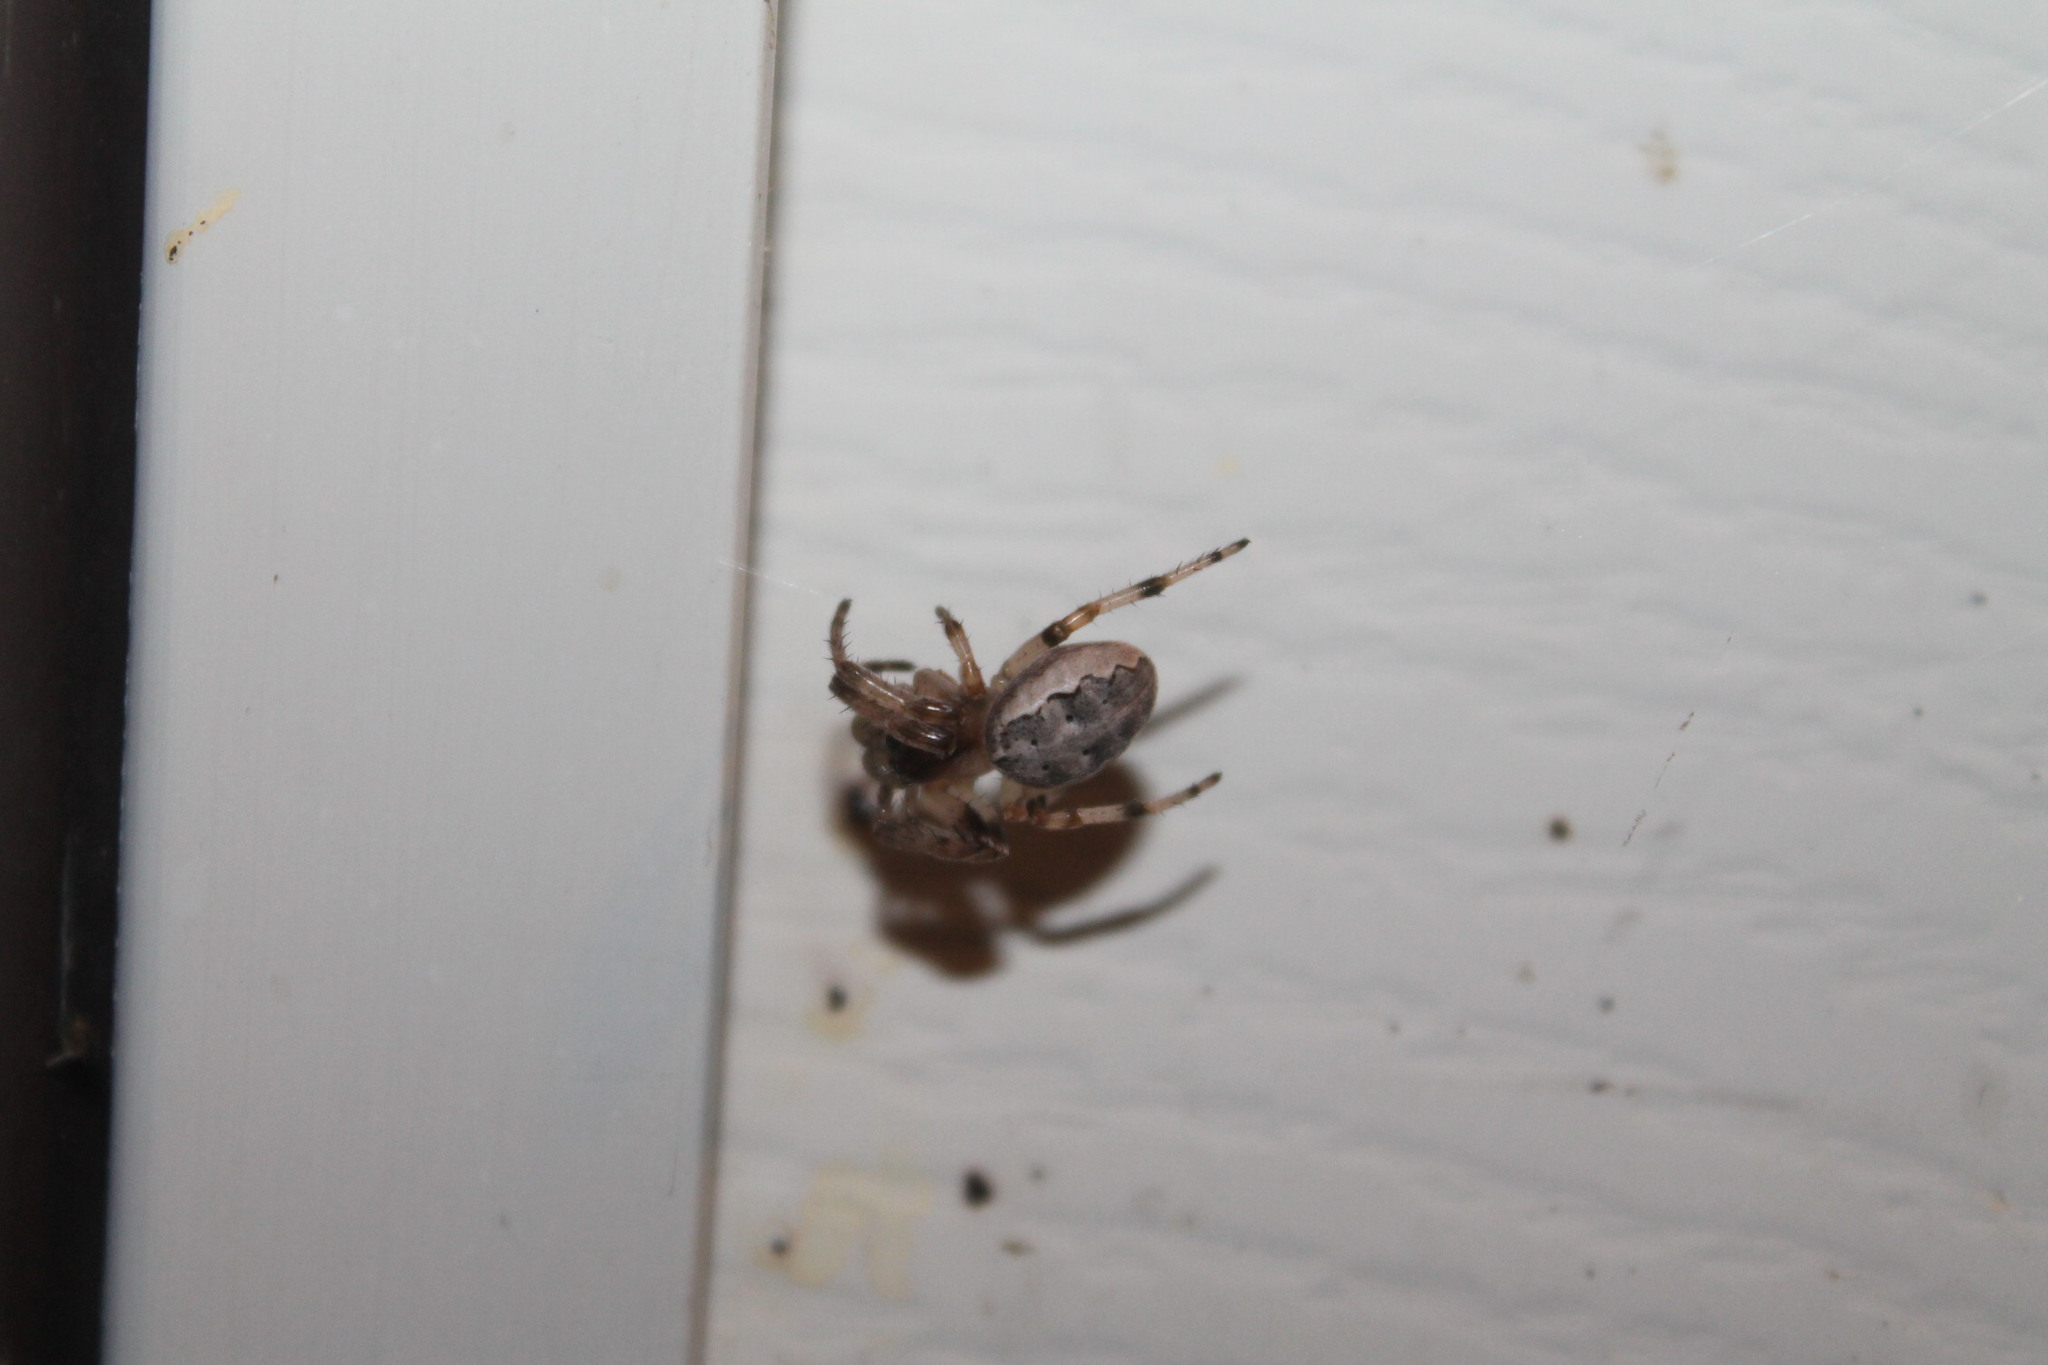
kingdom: Animalia
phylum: Arthropoda
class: Arachnida
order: Araneae
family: Araneidae
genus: Larinioides
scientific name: Larinioides cornutus
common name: Furrow orbweaver
